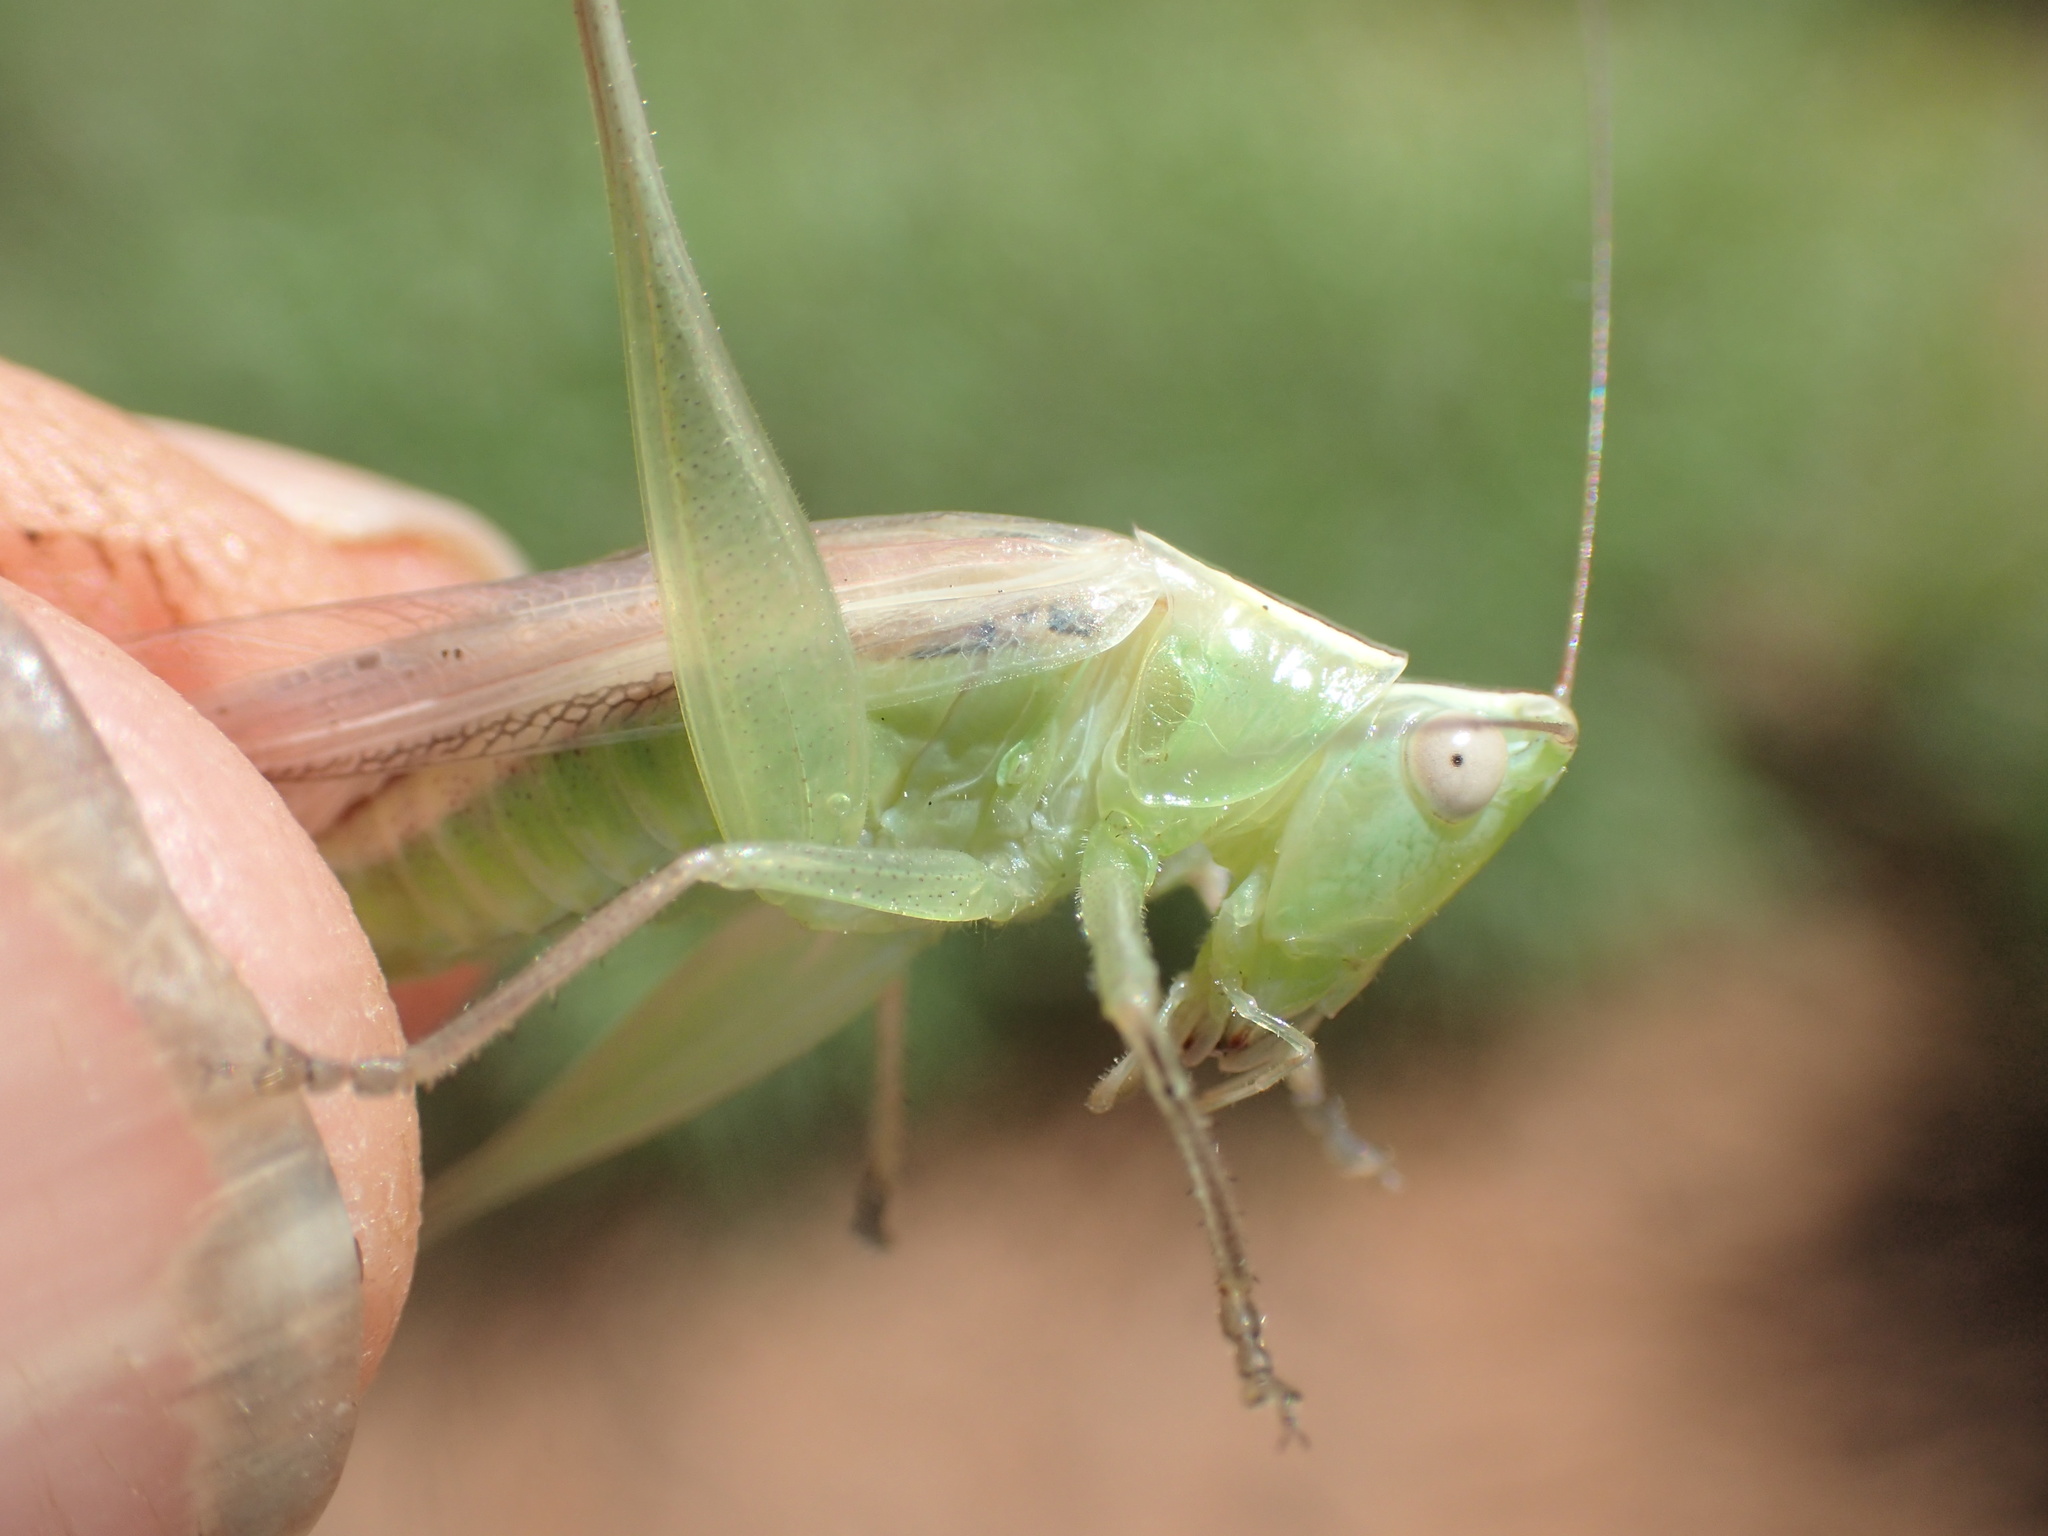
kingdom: Animalia
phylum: Arthropoda
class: Insecta
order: Orthoptera
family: Tettigoniidae
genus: Conocephalus
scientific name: Conocephalus upoluensis
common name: Upolu meadow katydid
